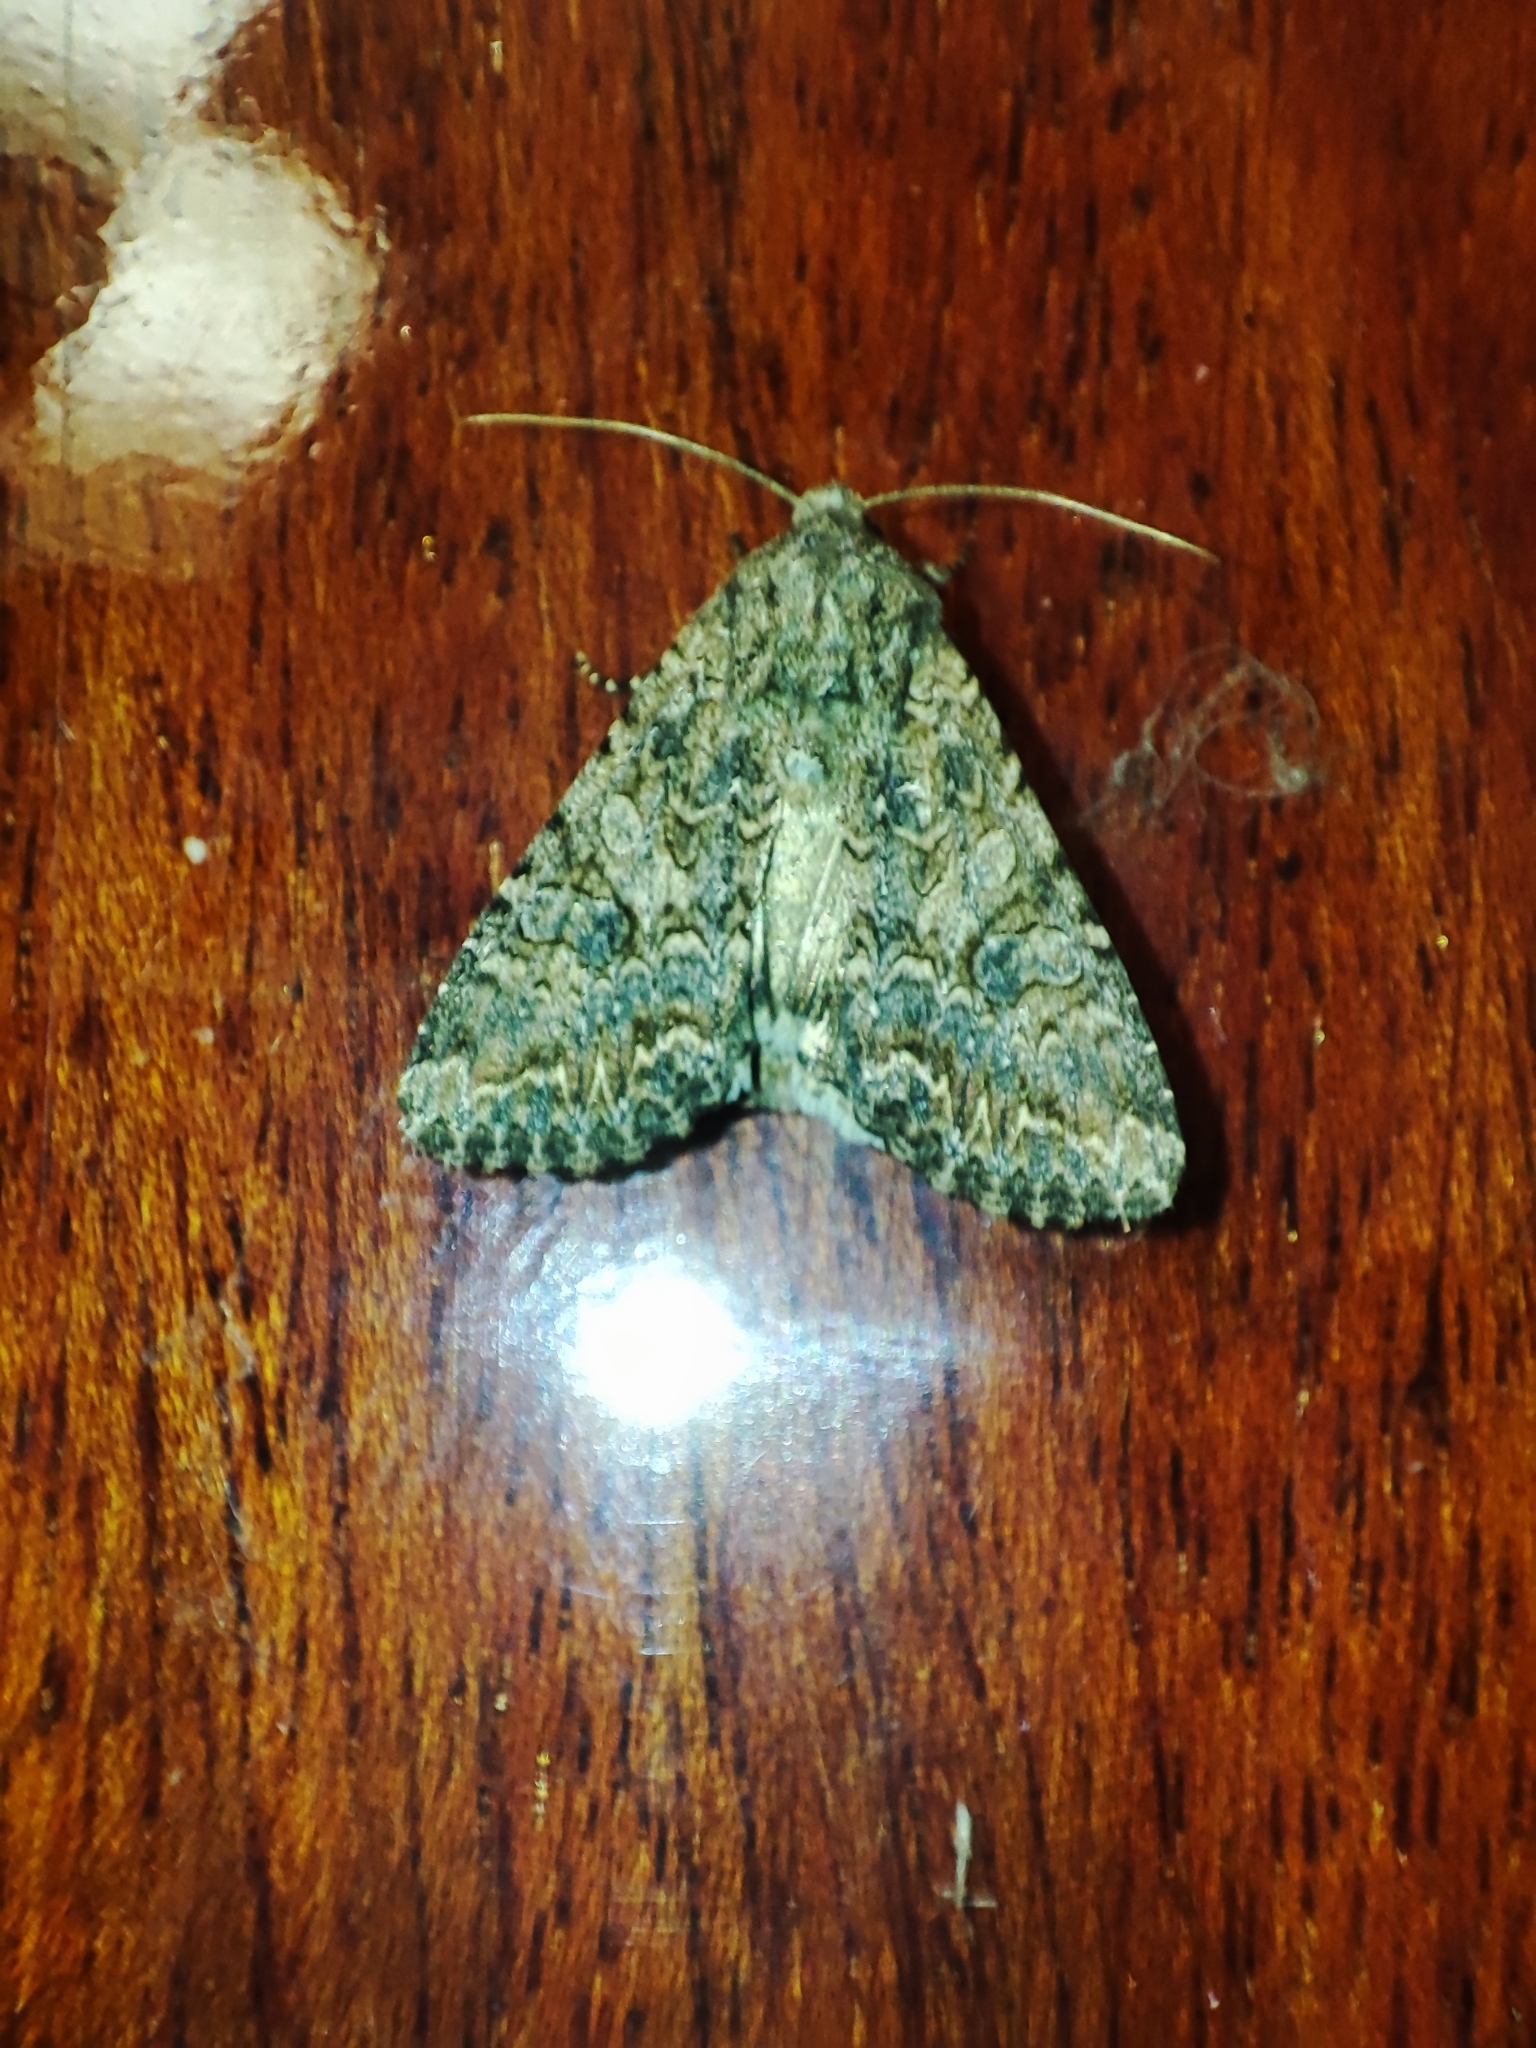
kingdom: Animalia
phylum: Arthropoda
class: Insecta
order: Lepidoptera
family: Noctuidae
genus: Anarta
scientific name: Anarta trifolii
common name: Clover cutworm moth
